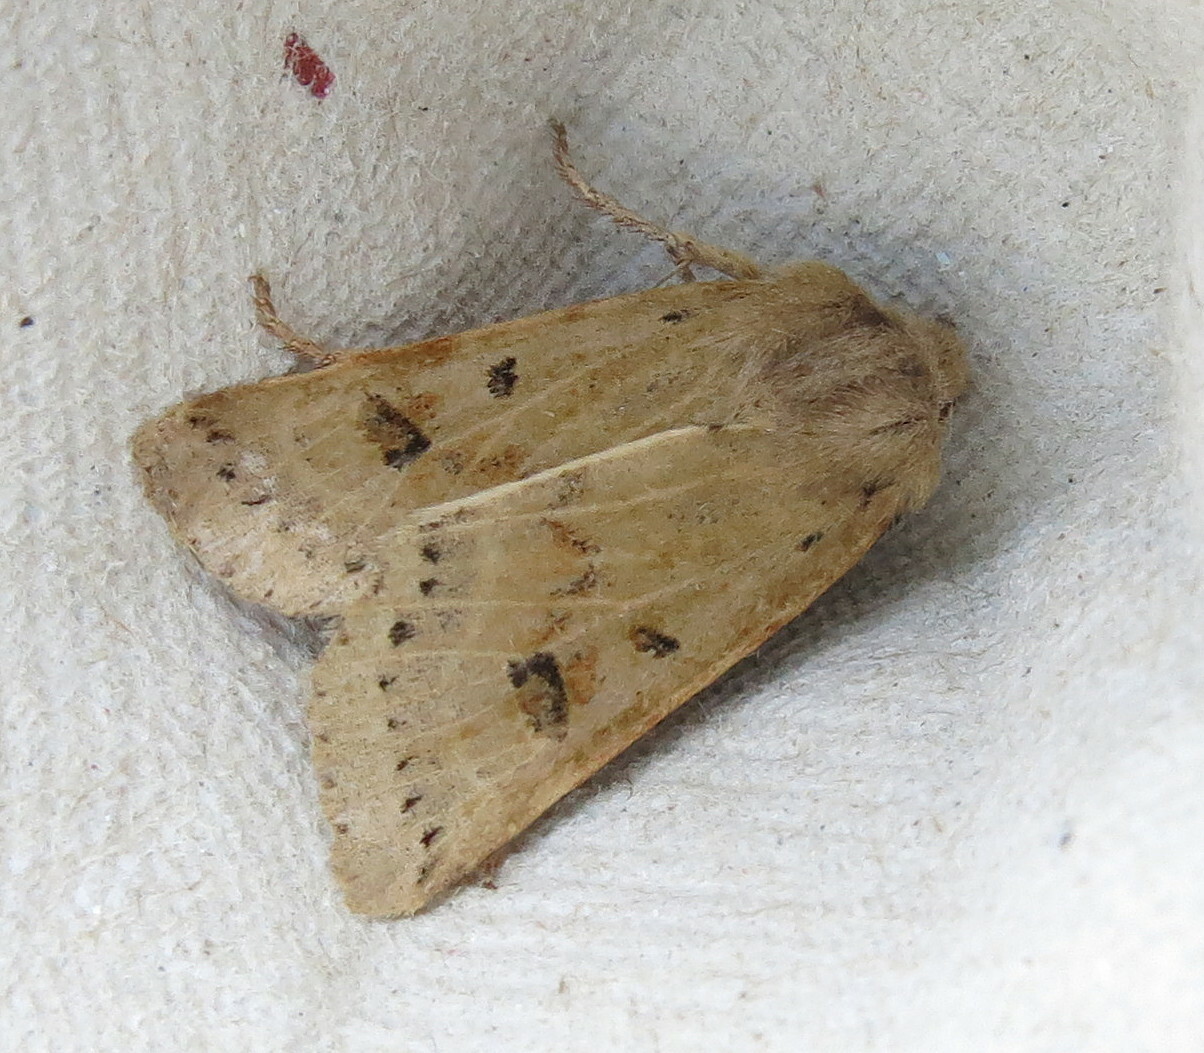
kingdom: Animalia
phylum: Arthropoda
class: Insecta
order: Lepidoptera
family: Noctuidae
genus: Agrochola
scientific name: Agrochola lunosa
